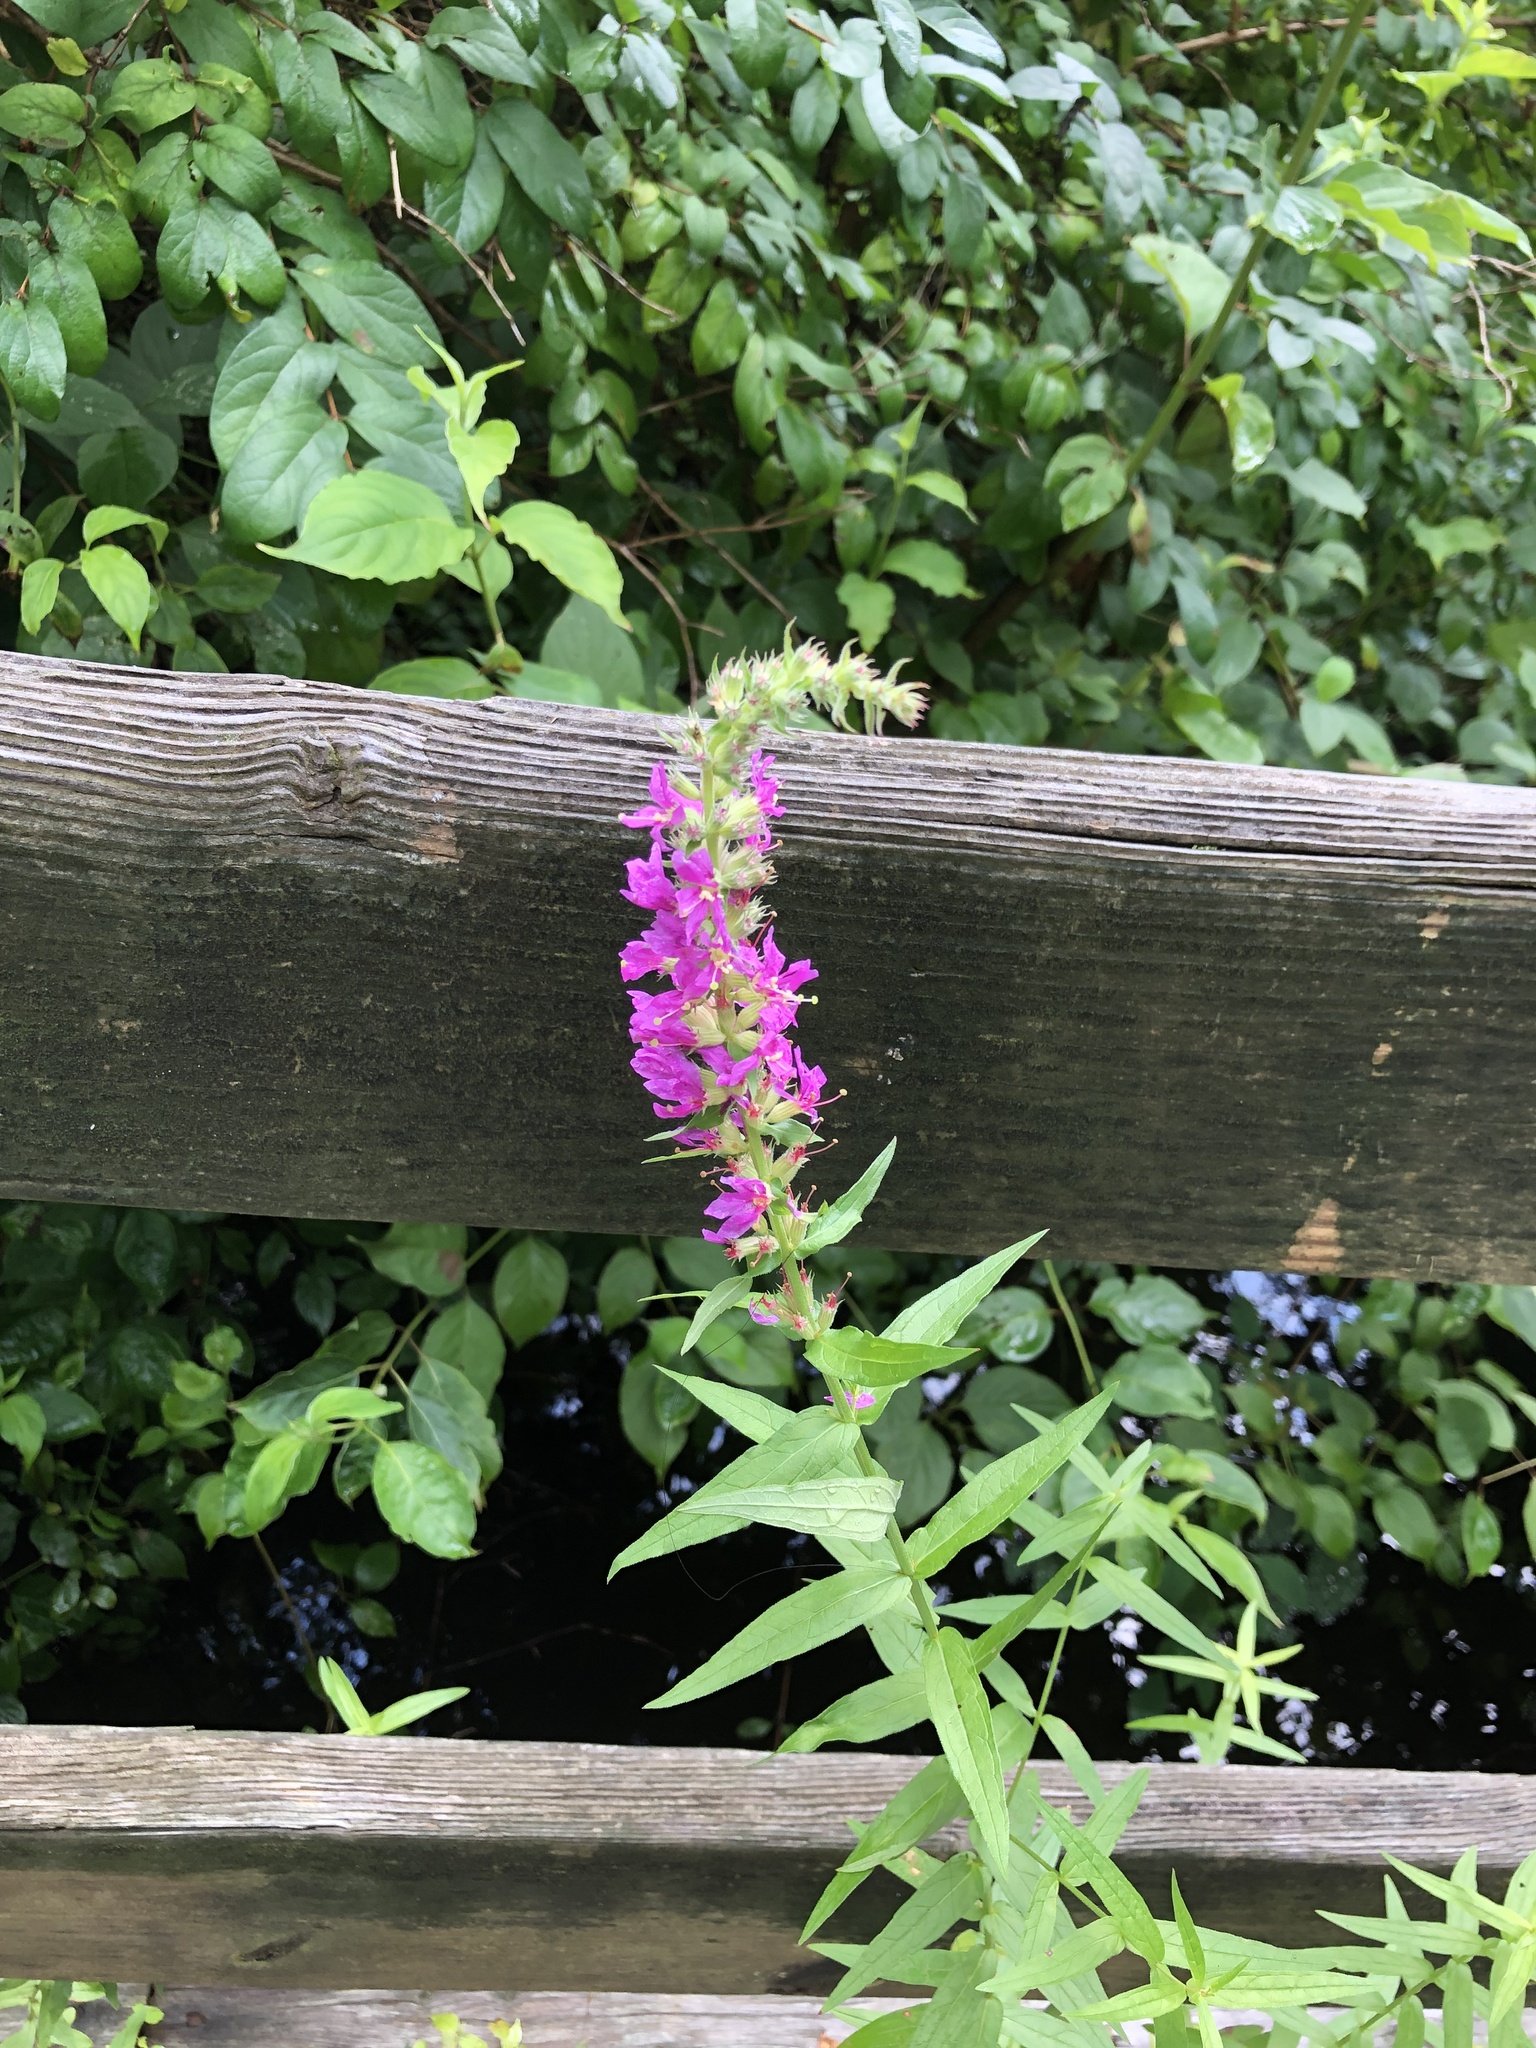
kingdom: Plantae
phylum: Tracheophyta
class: Magnoliopsida
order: Myrtales
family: Lythraceae
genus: Lythrum
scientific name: Lythrum salicaria
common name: Purple loosestrife
